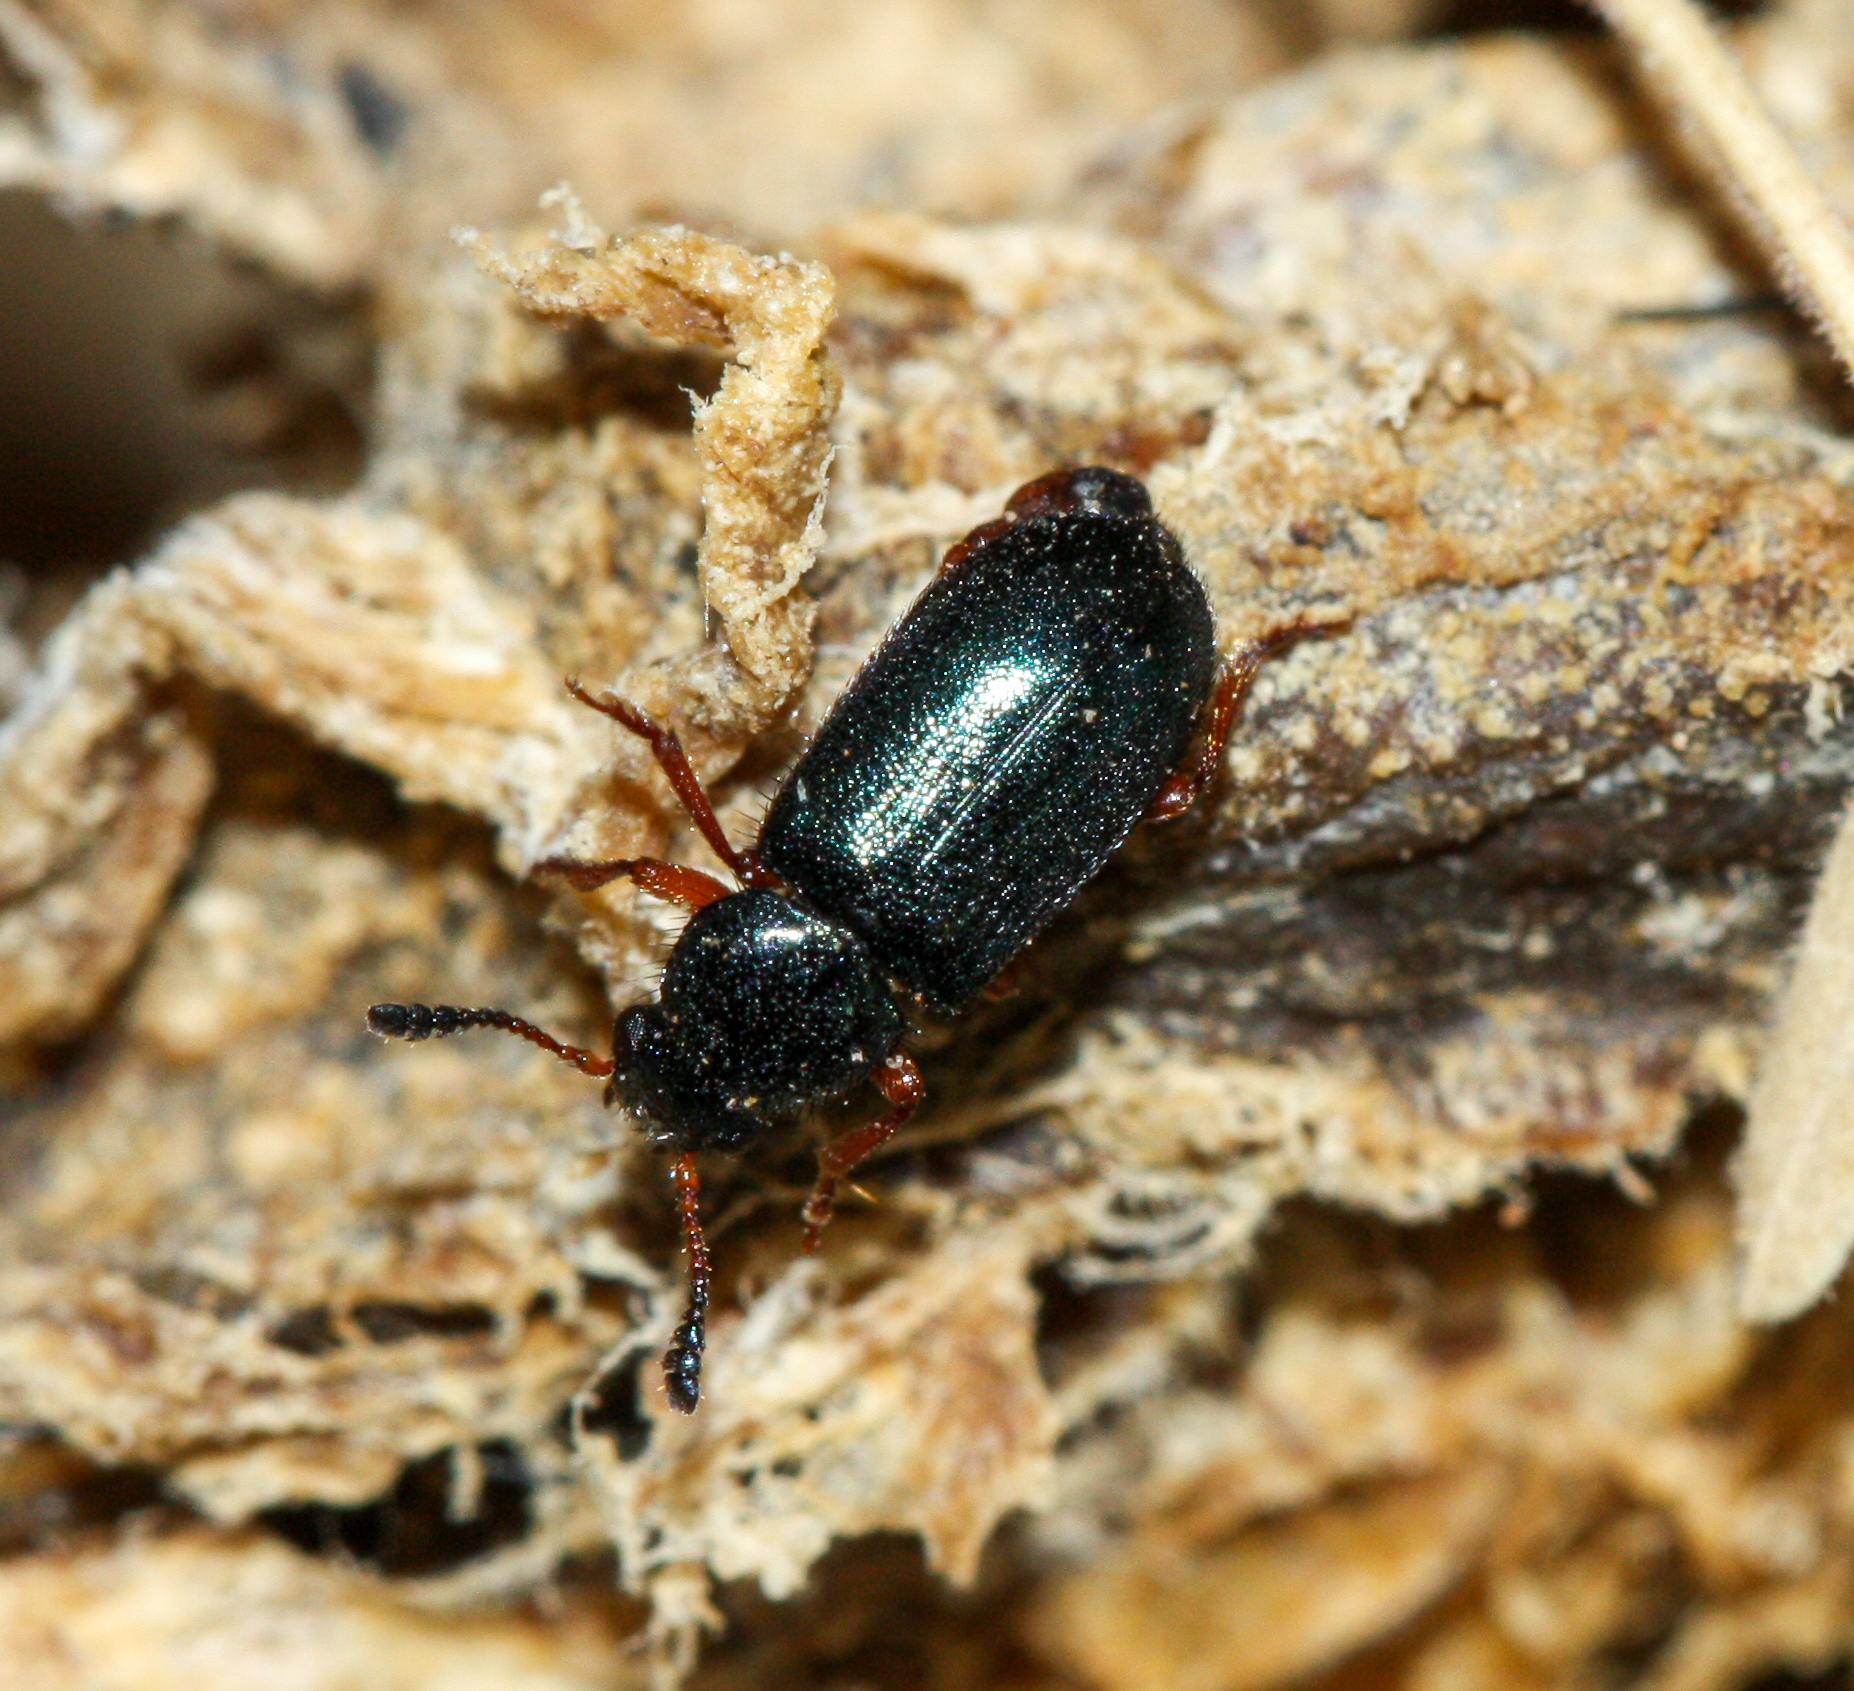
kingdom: Animalia
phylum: Arthropoda
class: Insecta
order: Coleoptera
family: Cleridae
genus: Necrobia
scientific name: Necrobia rufipes
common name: Red-legged ham beetle
